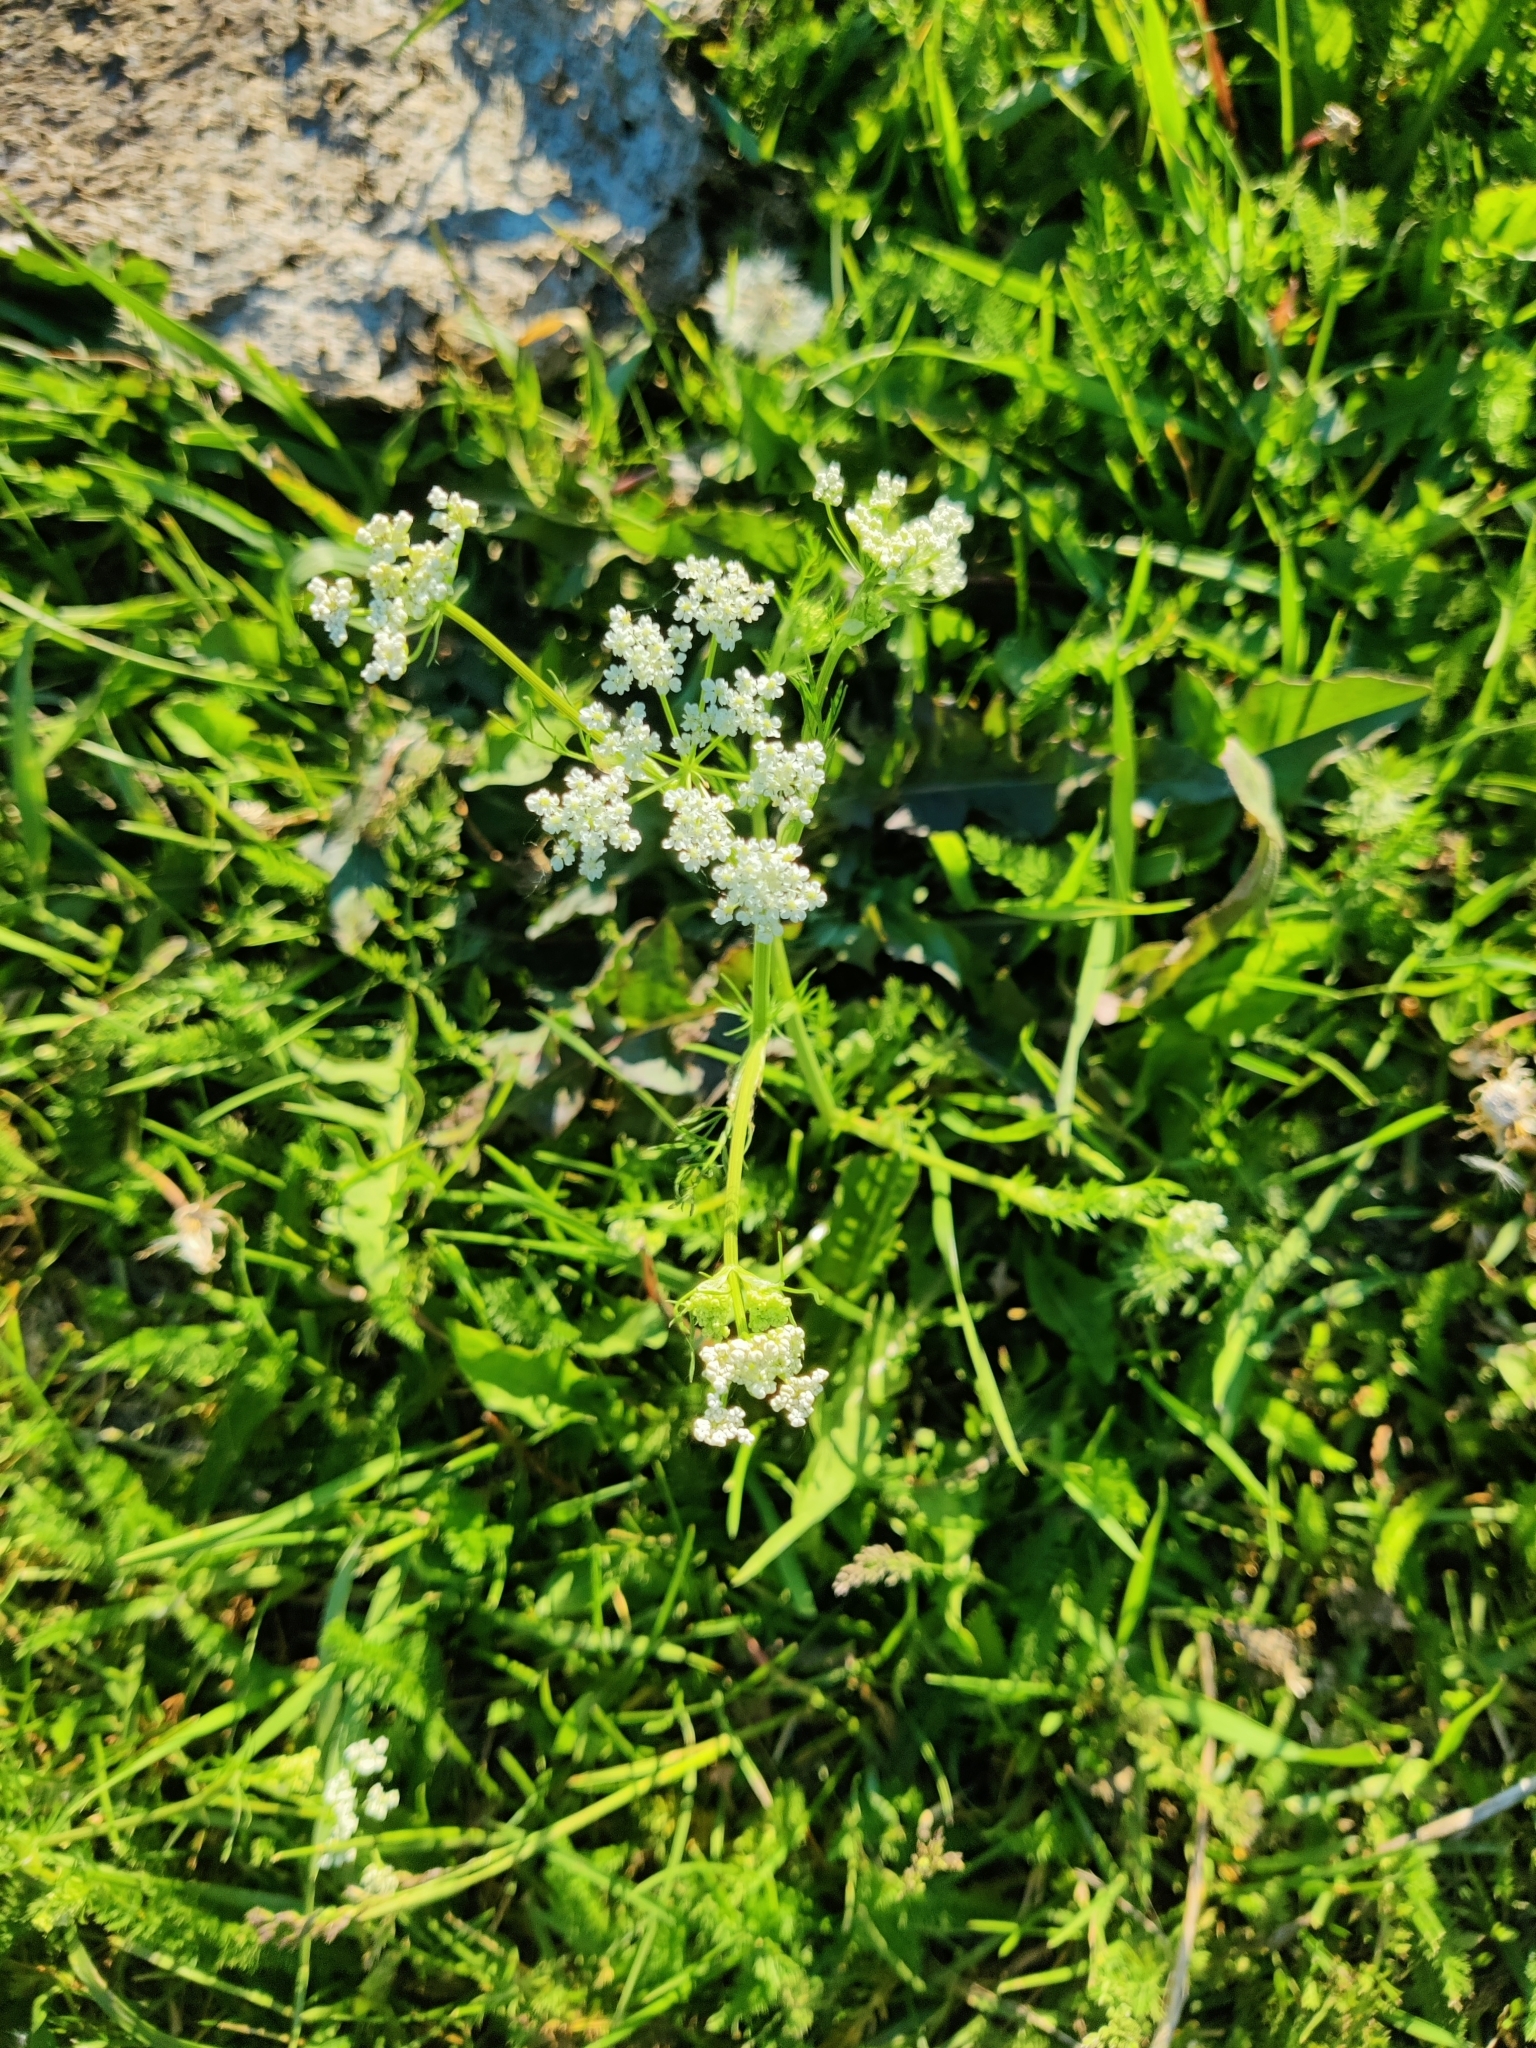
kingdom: Plantae
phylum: Tracheophyta
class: Magnoliopsida
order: Apiales
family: Apiaceae
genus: Carum
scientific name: Carum carvi
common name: Caraway
